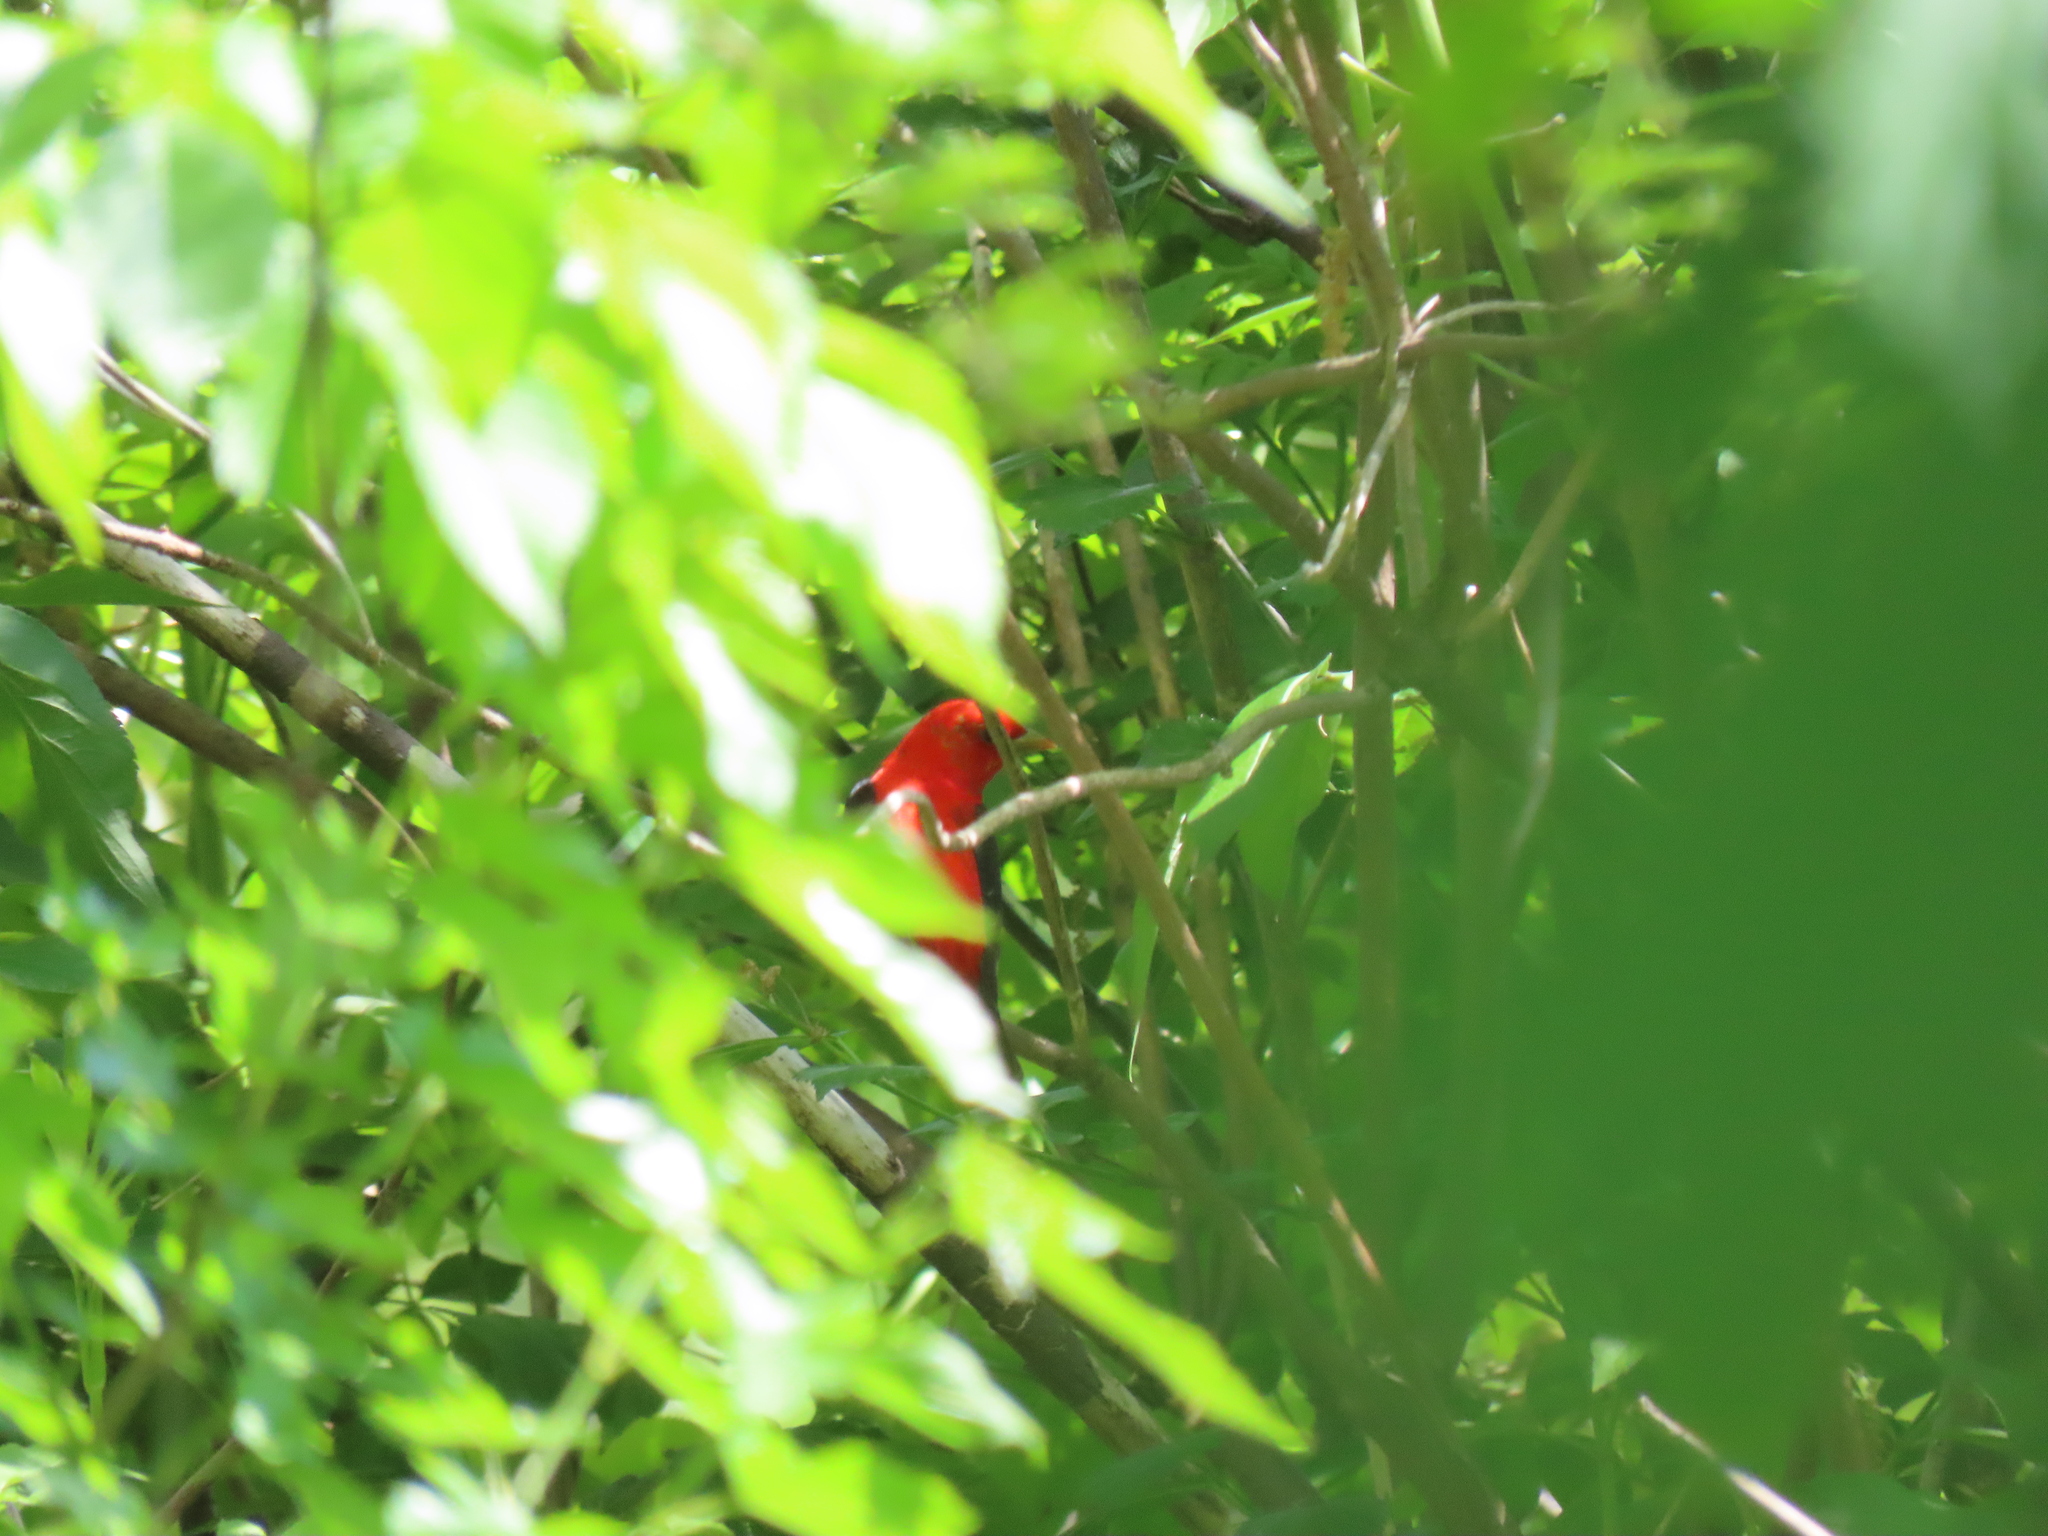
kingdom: Animalia
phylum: Chordata
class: Aves
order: Passeriformes
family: Cardinalidae
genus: Piranga
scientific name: Piranga olivacea
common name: Scarlet tanager
